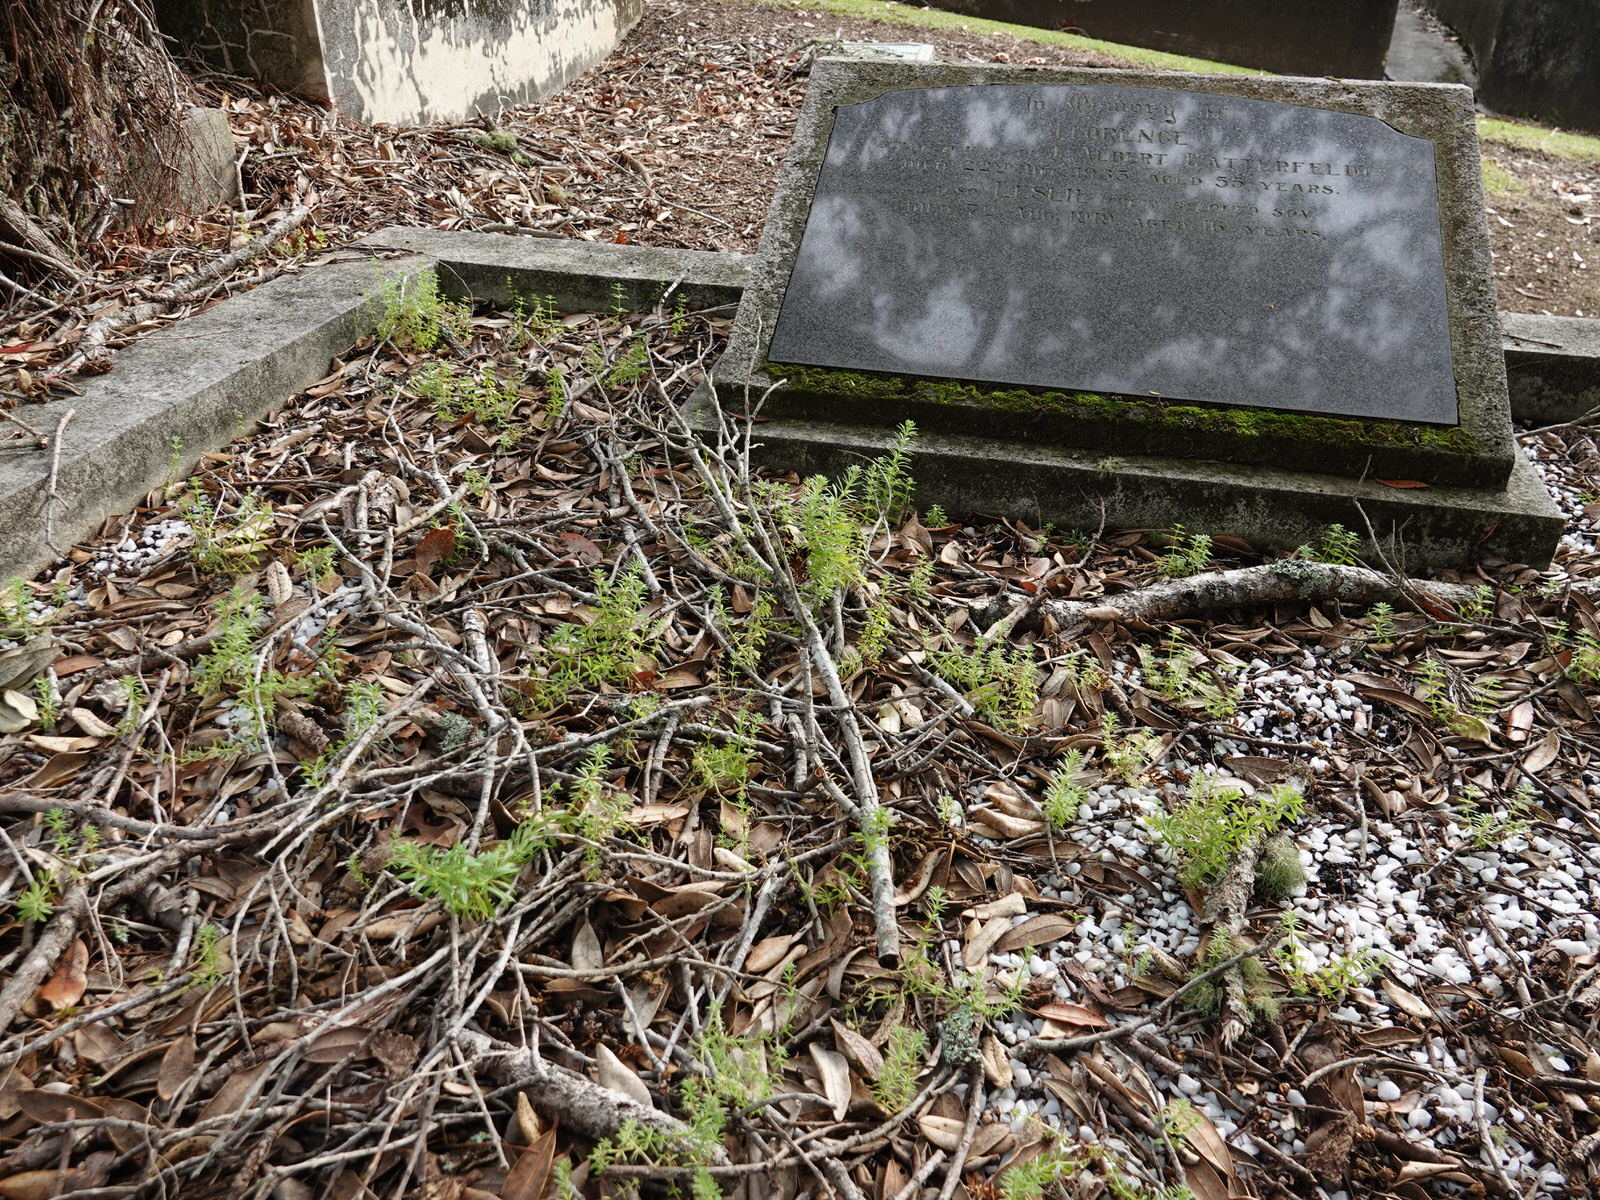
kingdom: Plantae
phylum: Tracheophyta
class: Magnoliopsida
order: Gentianales
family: Rubiaceae
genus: Galium
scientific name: Galium aparine
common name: Cleavers
